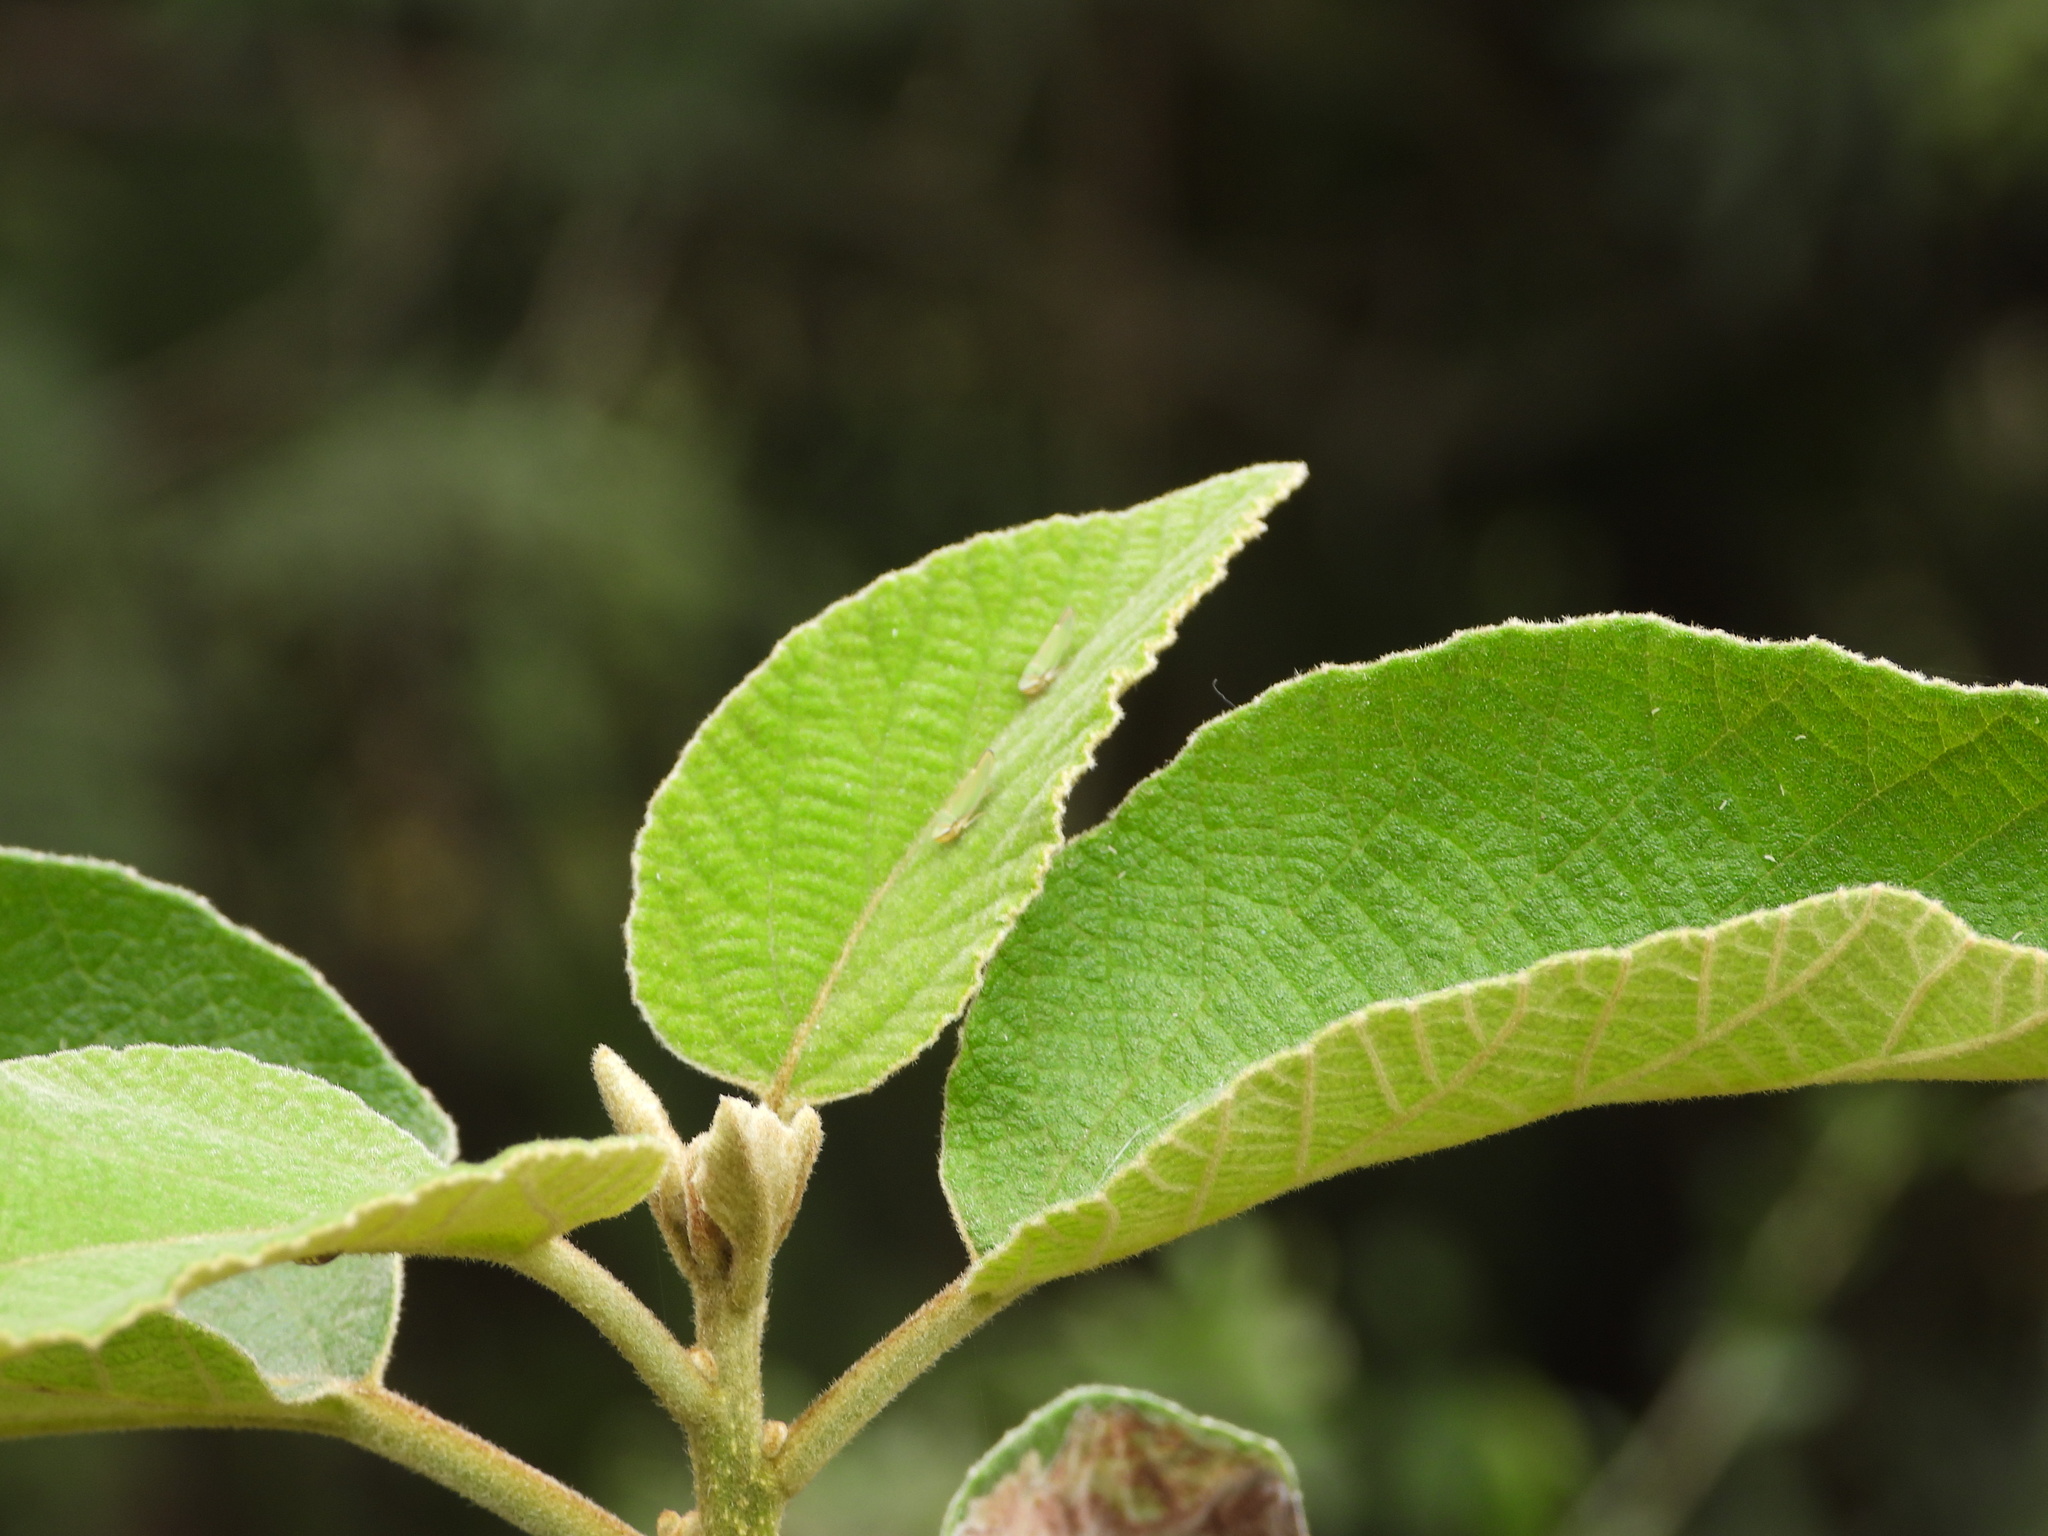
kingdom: Animalia
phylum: Arthropoda
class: Insecta
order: Hemiptera
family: Cicadellidae
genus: Graphogonalia
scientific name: Graphogonalia evagorata
